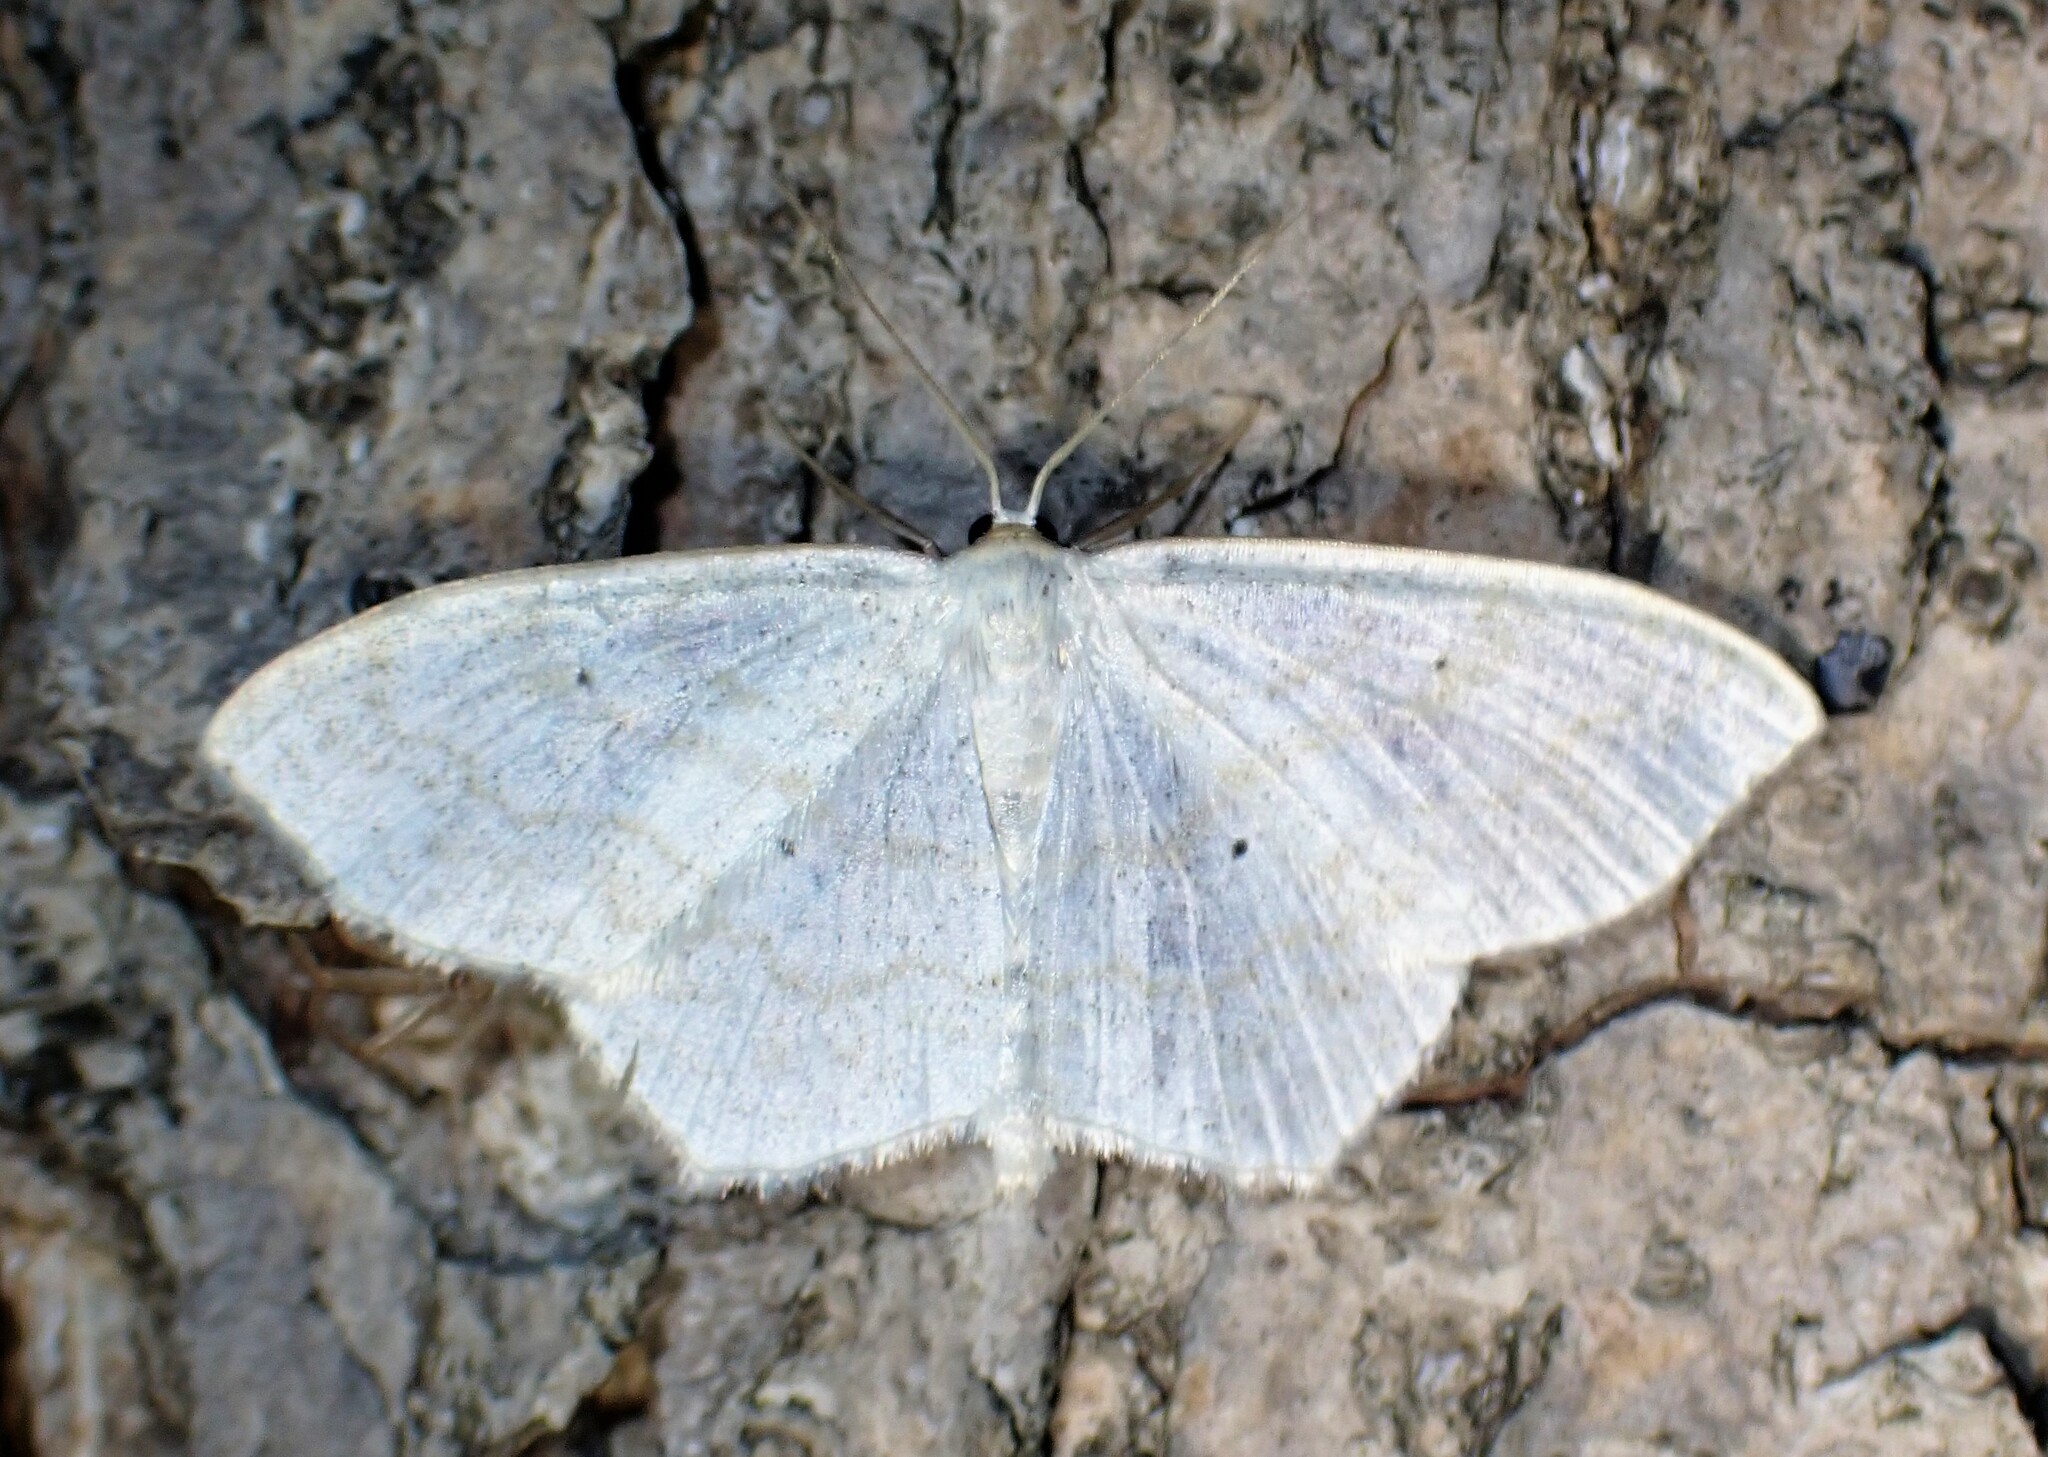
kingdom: Animalia
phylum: Arthropoda
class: Insecta
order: Lepidoptera
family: Geometridae
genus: Scopula
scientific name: Scopula limboundata
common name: Large lace border
